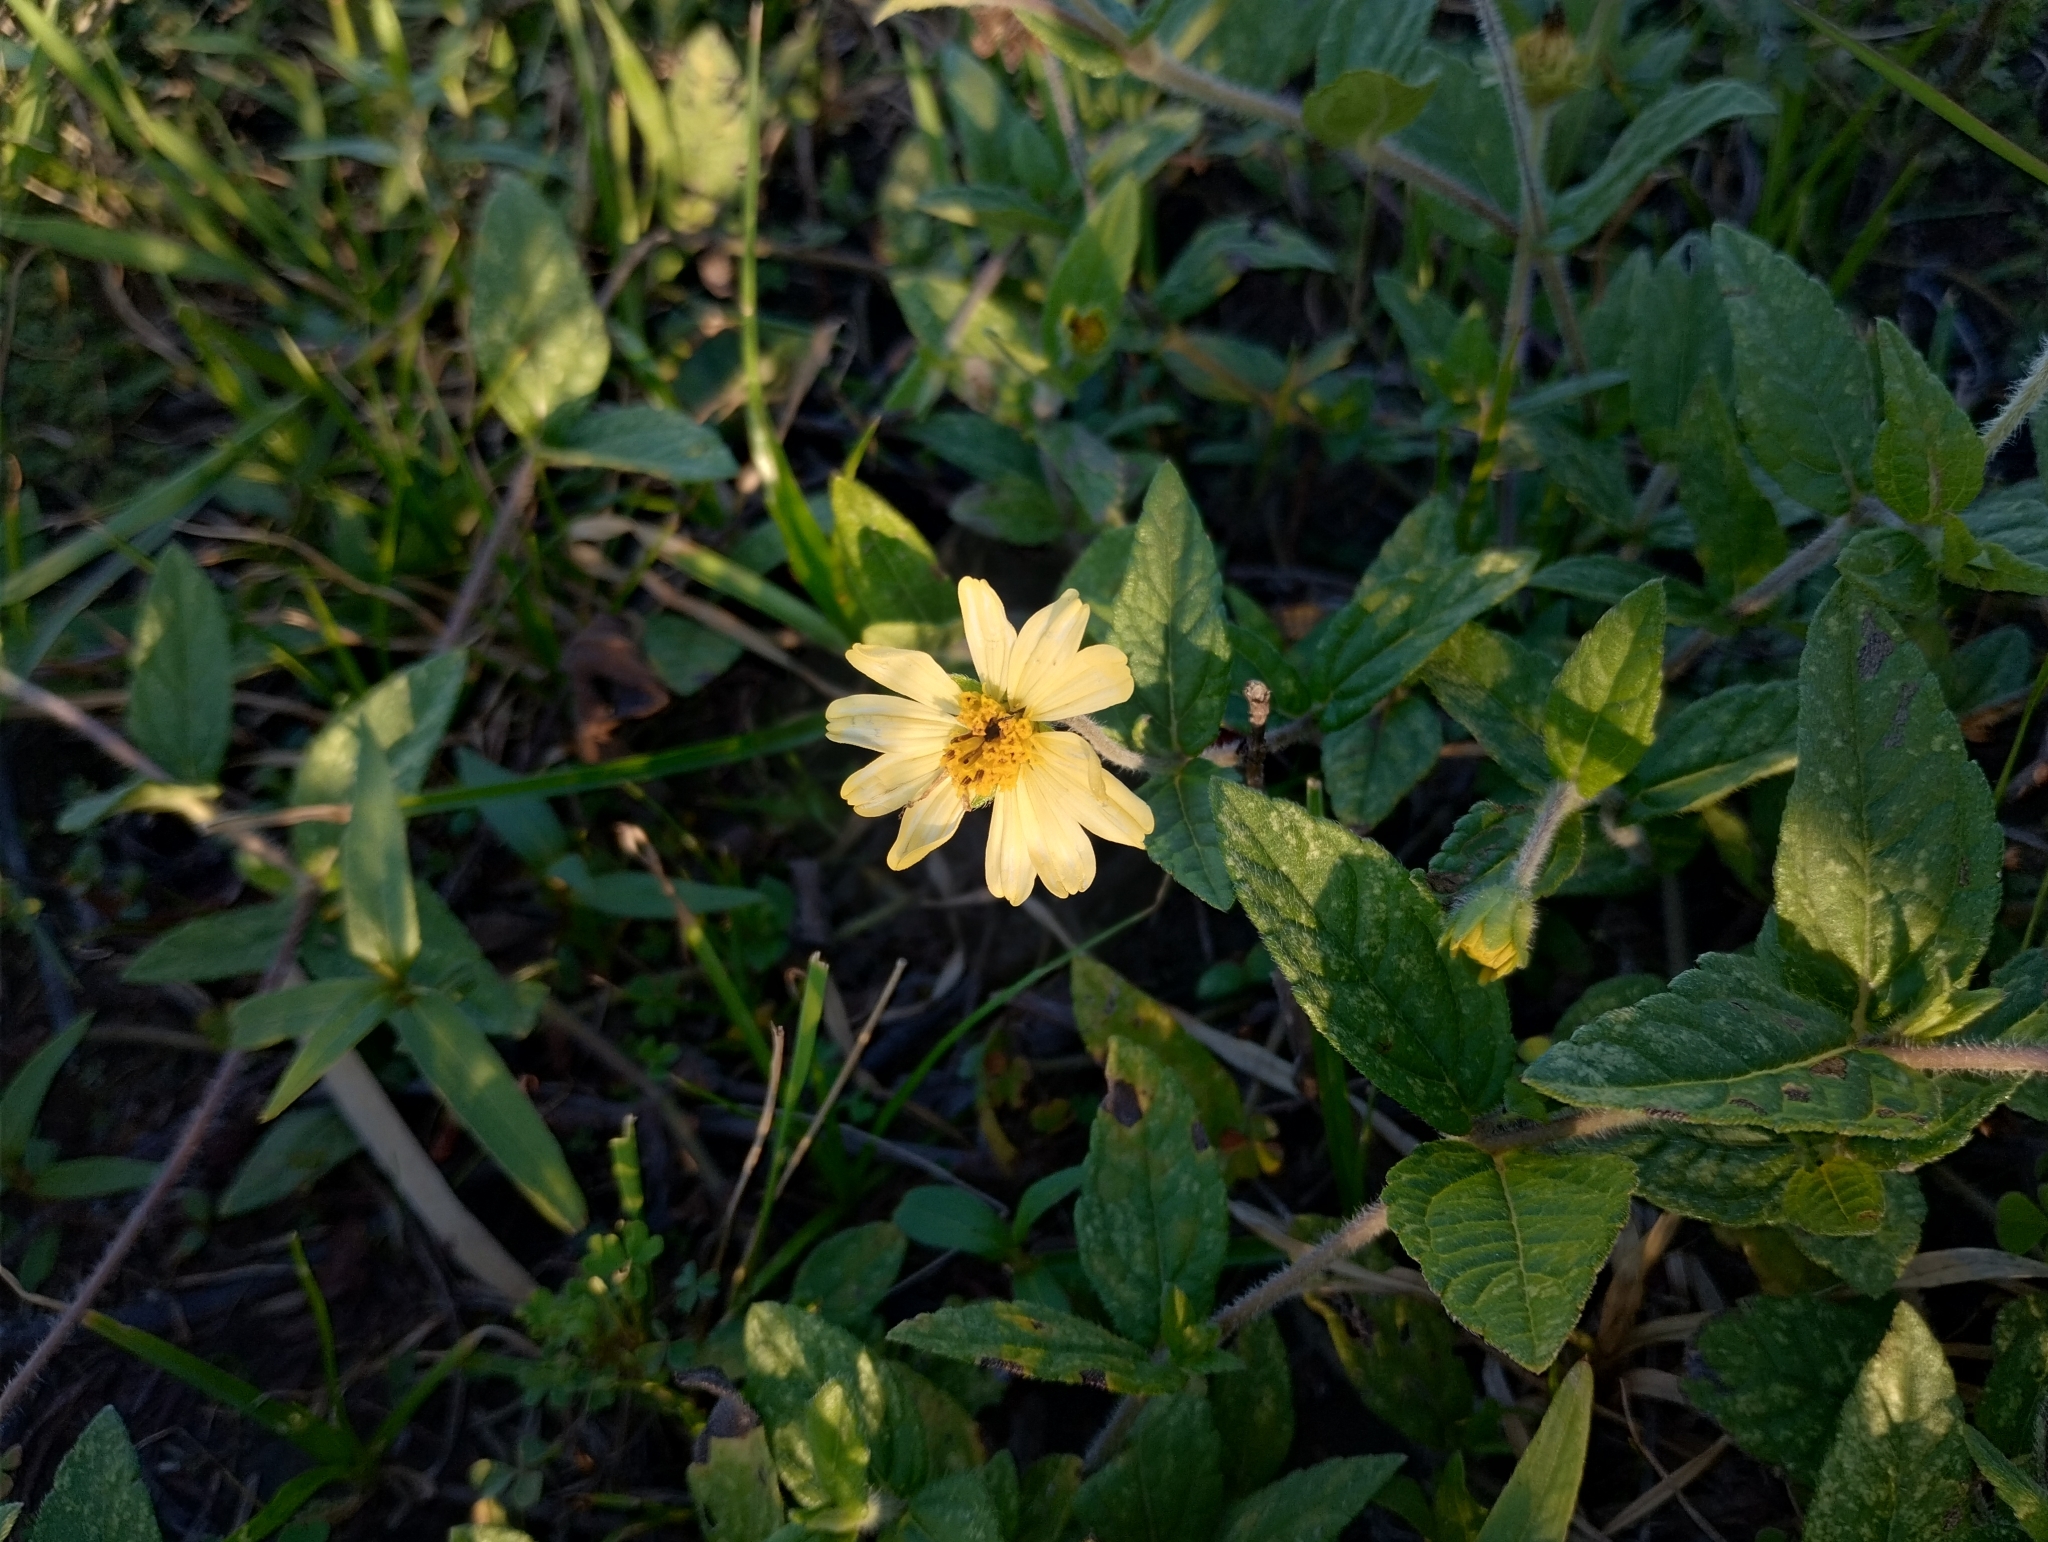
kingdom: Plantae
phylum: Tracheophyta
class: Magnoliopsida
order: Asterales
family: Asteraceae
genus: Sphagneticola
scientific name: Sphagneticola brachycarpa
